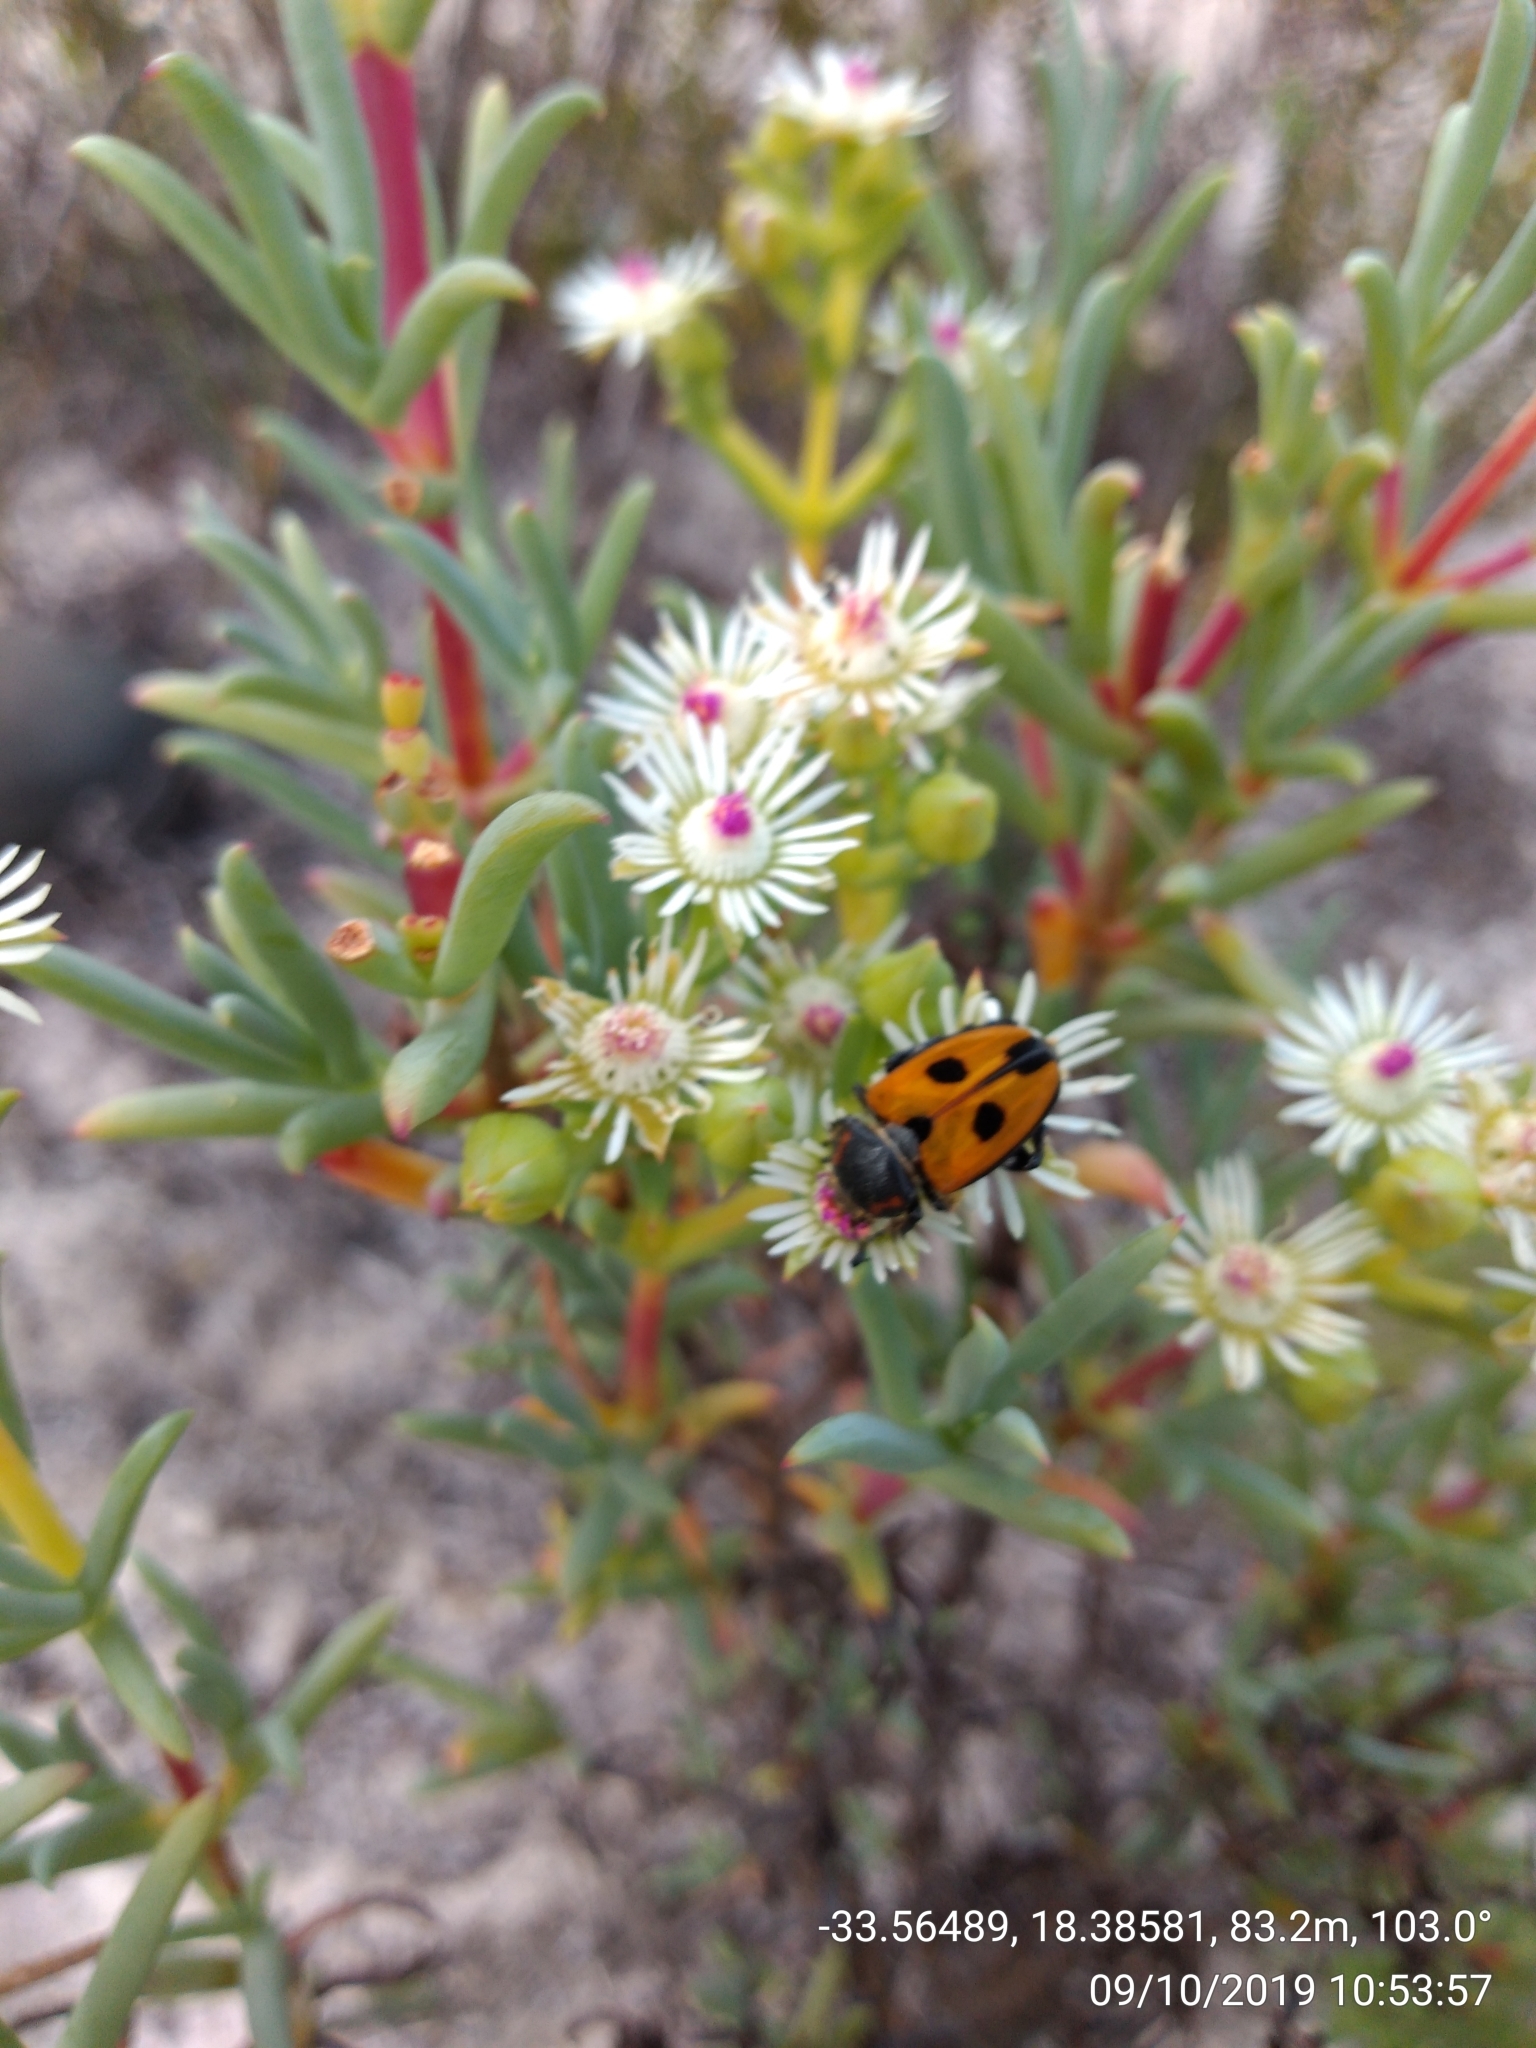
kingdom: Plantae
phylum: Tracheophyta
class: Magnoliopsida
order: Caryophyllales
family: Aizoaceae
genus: Ruschia
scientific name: Ruschia indecora
